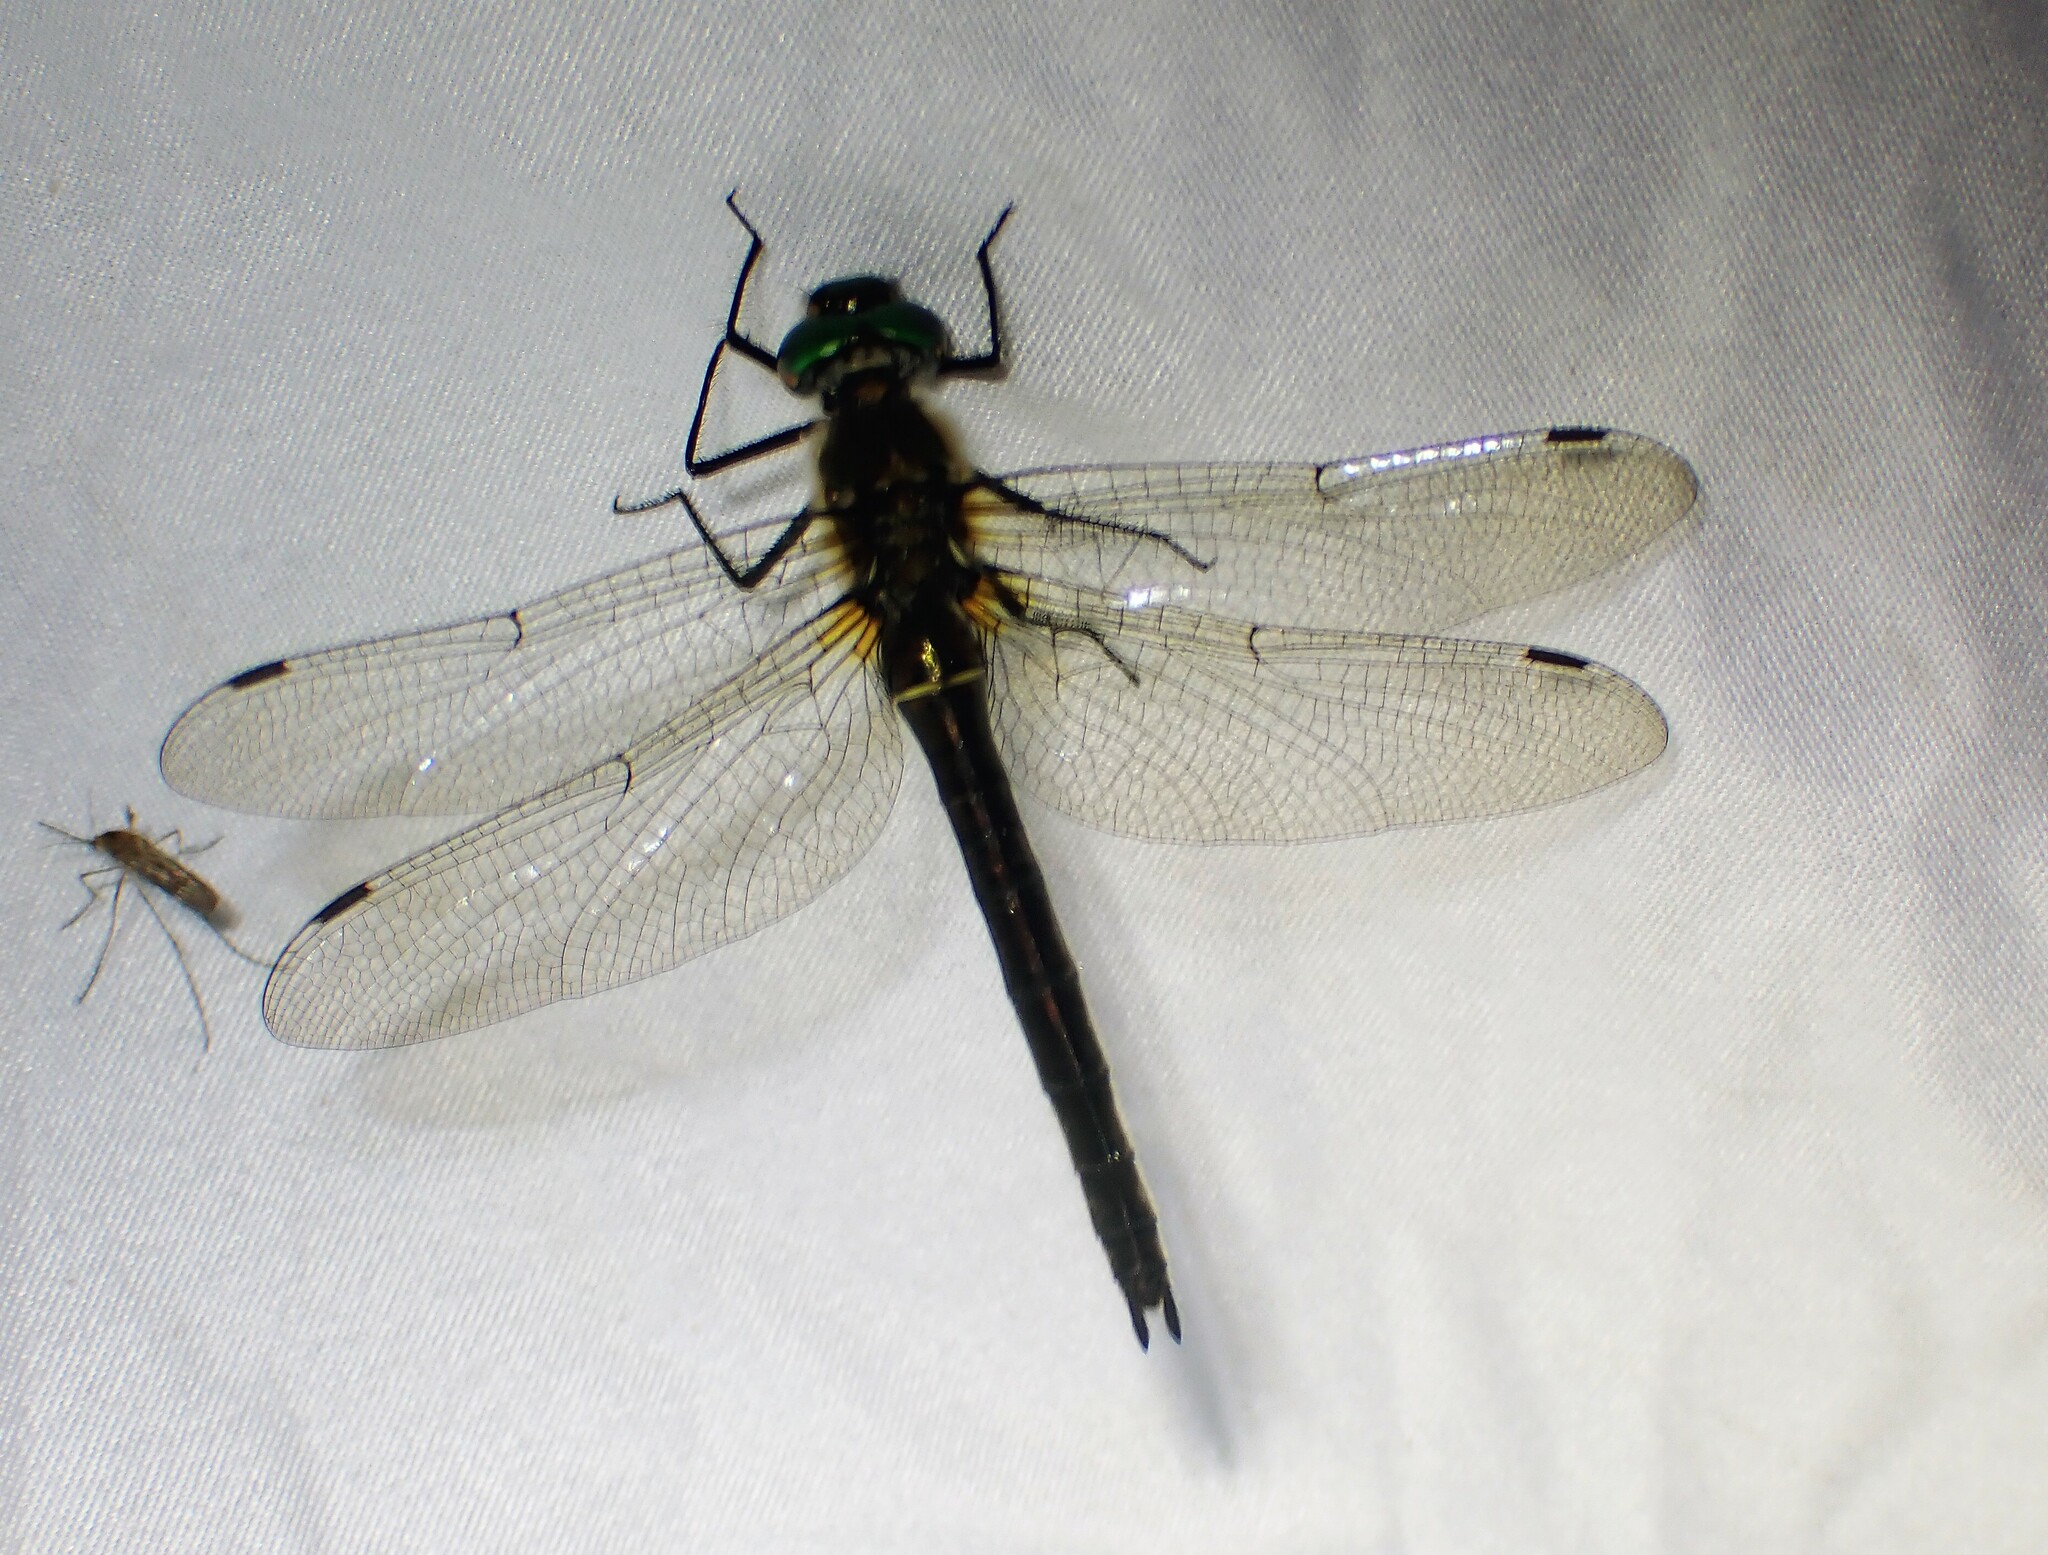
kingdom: Animalia
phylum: Arthropoda
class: Insecta
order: Odonata
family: Corduliidae
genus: Cordulia
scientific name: Cordulia shurtleffii
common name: American emerald
